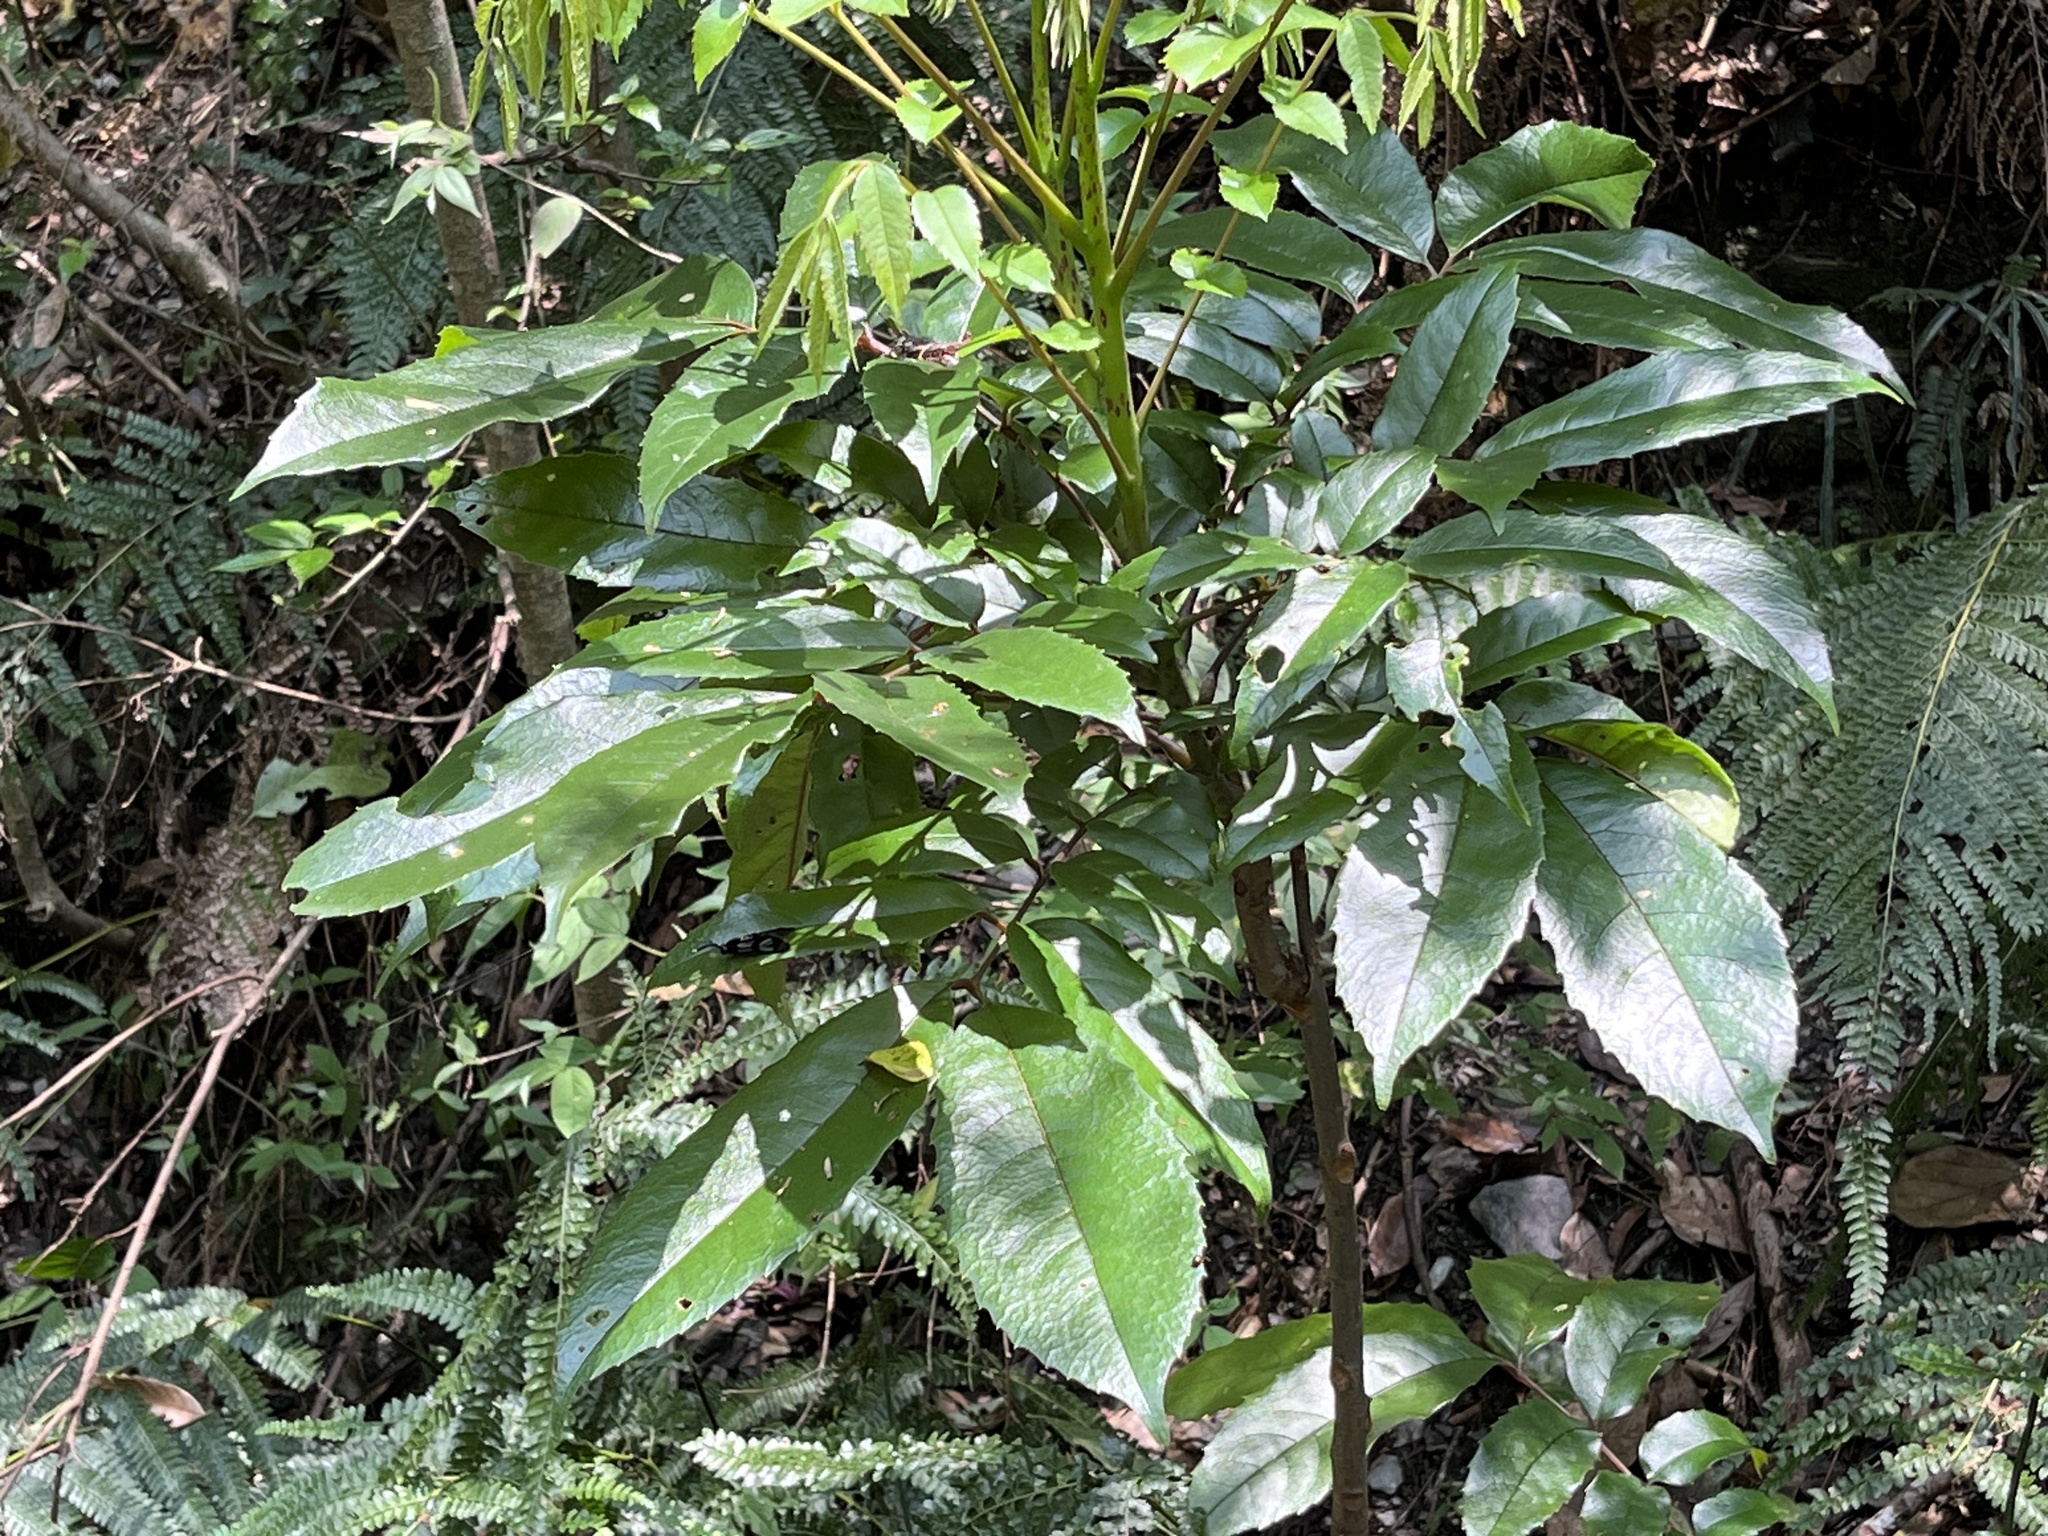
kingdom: Plantae
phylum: Tracheophyta
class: Magnoliopsida
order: Proteales
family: Sabiaceae
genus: Meliosma
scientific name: Meliosma rhoifolia
